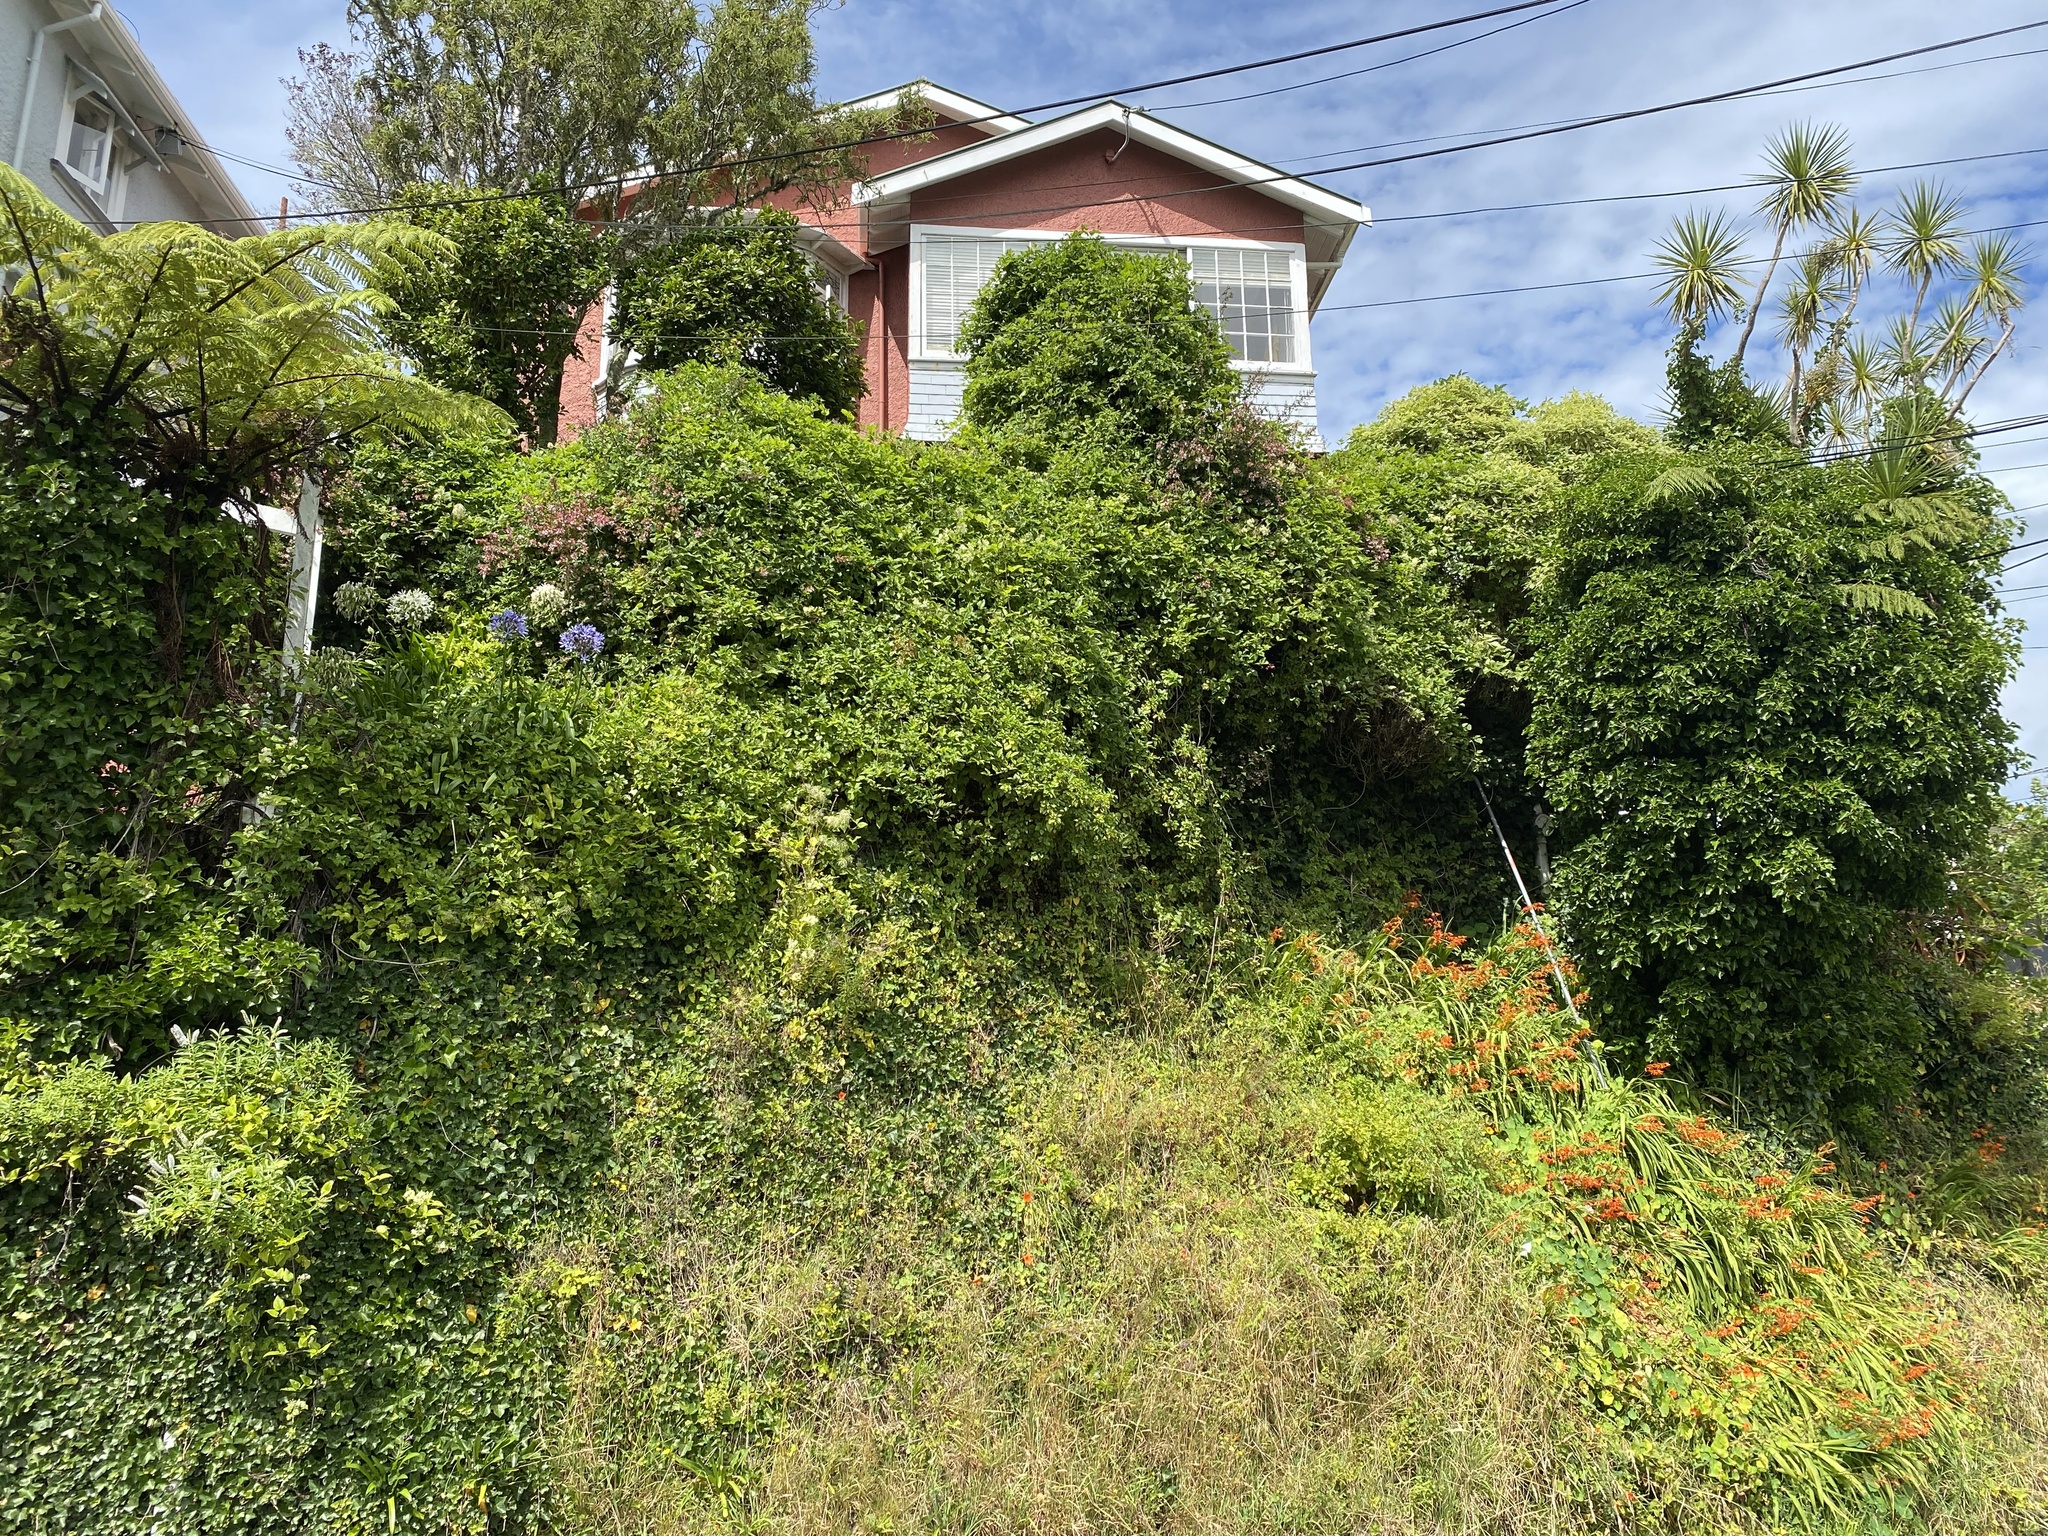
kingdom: Plantae
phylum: Tracheophyta
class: Magnoliopsida
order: Ranunculales
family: Ranunculaceae
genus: Clematis
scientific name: Clematis vitalba
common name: Evergreen clematis
